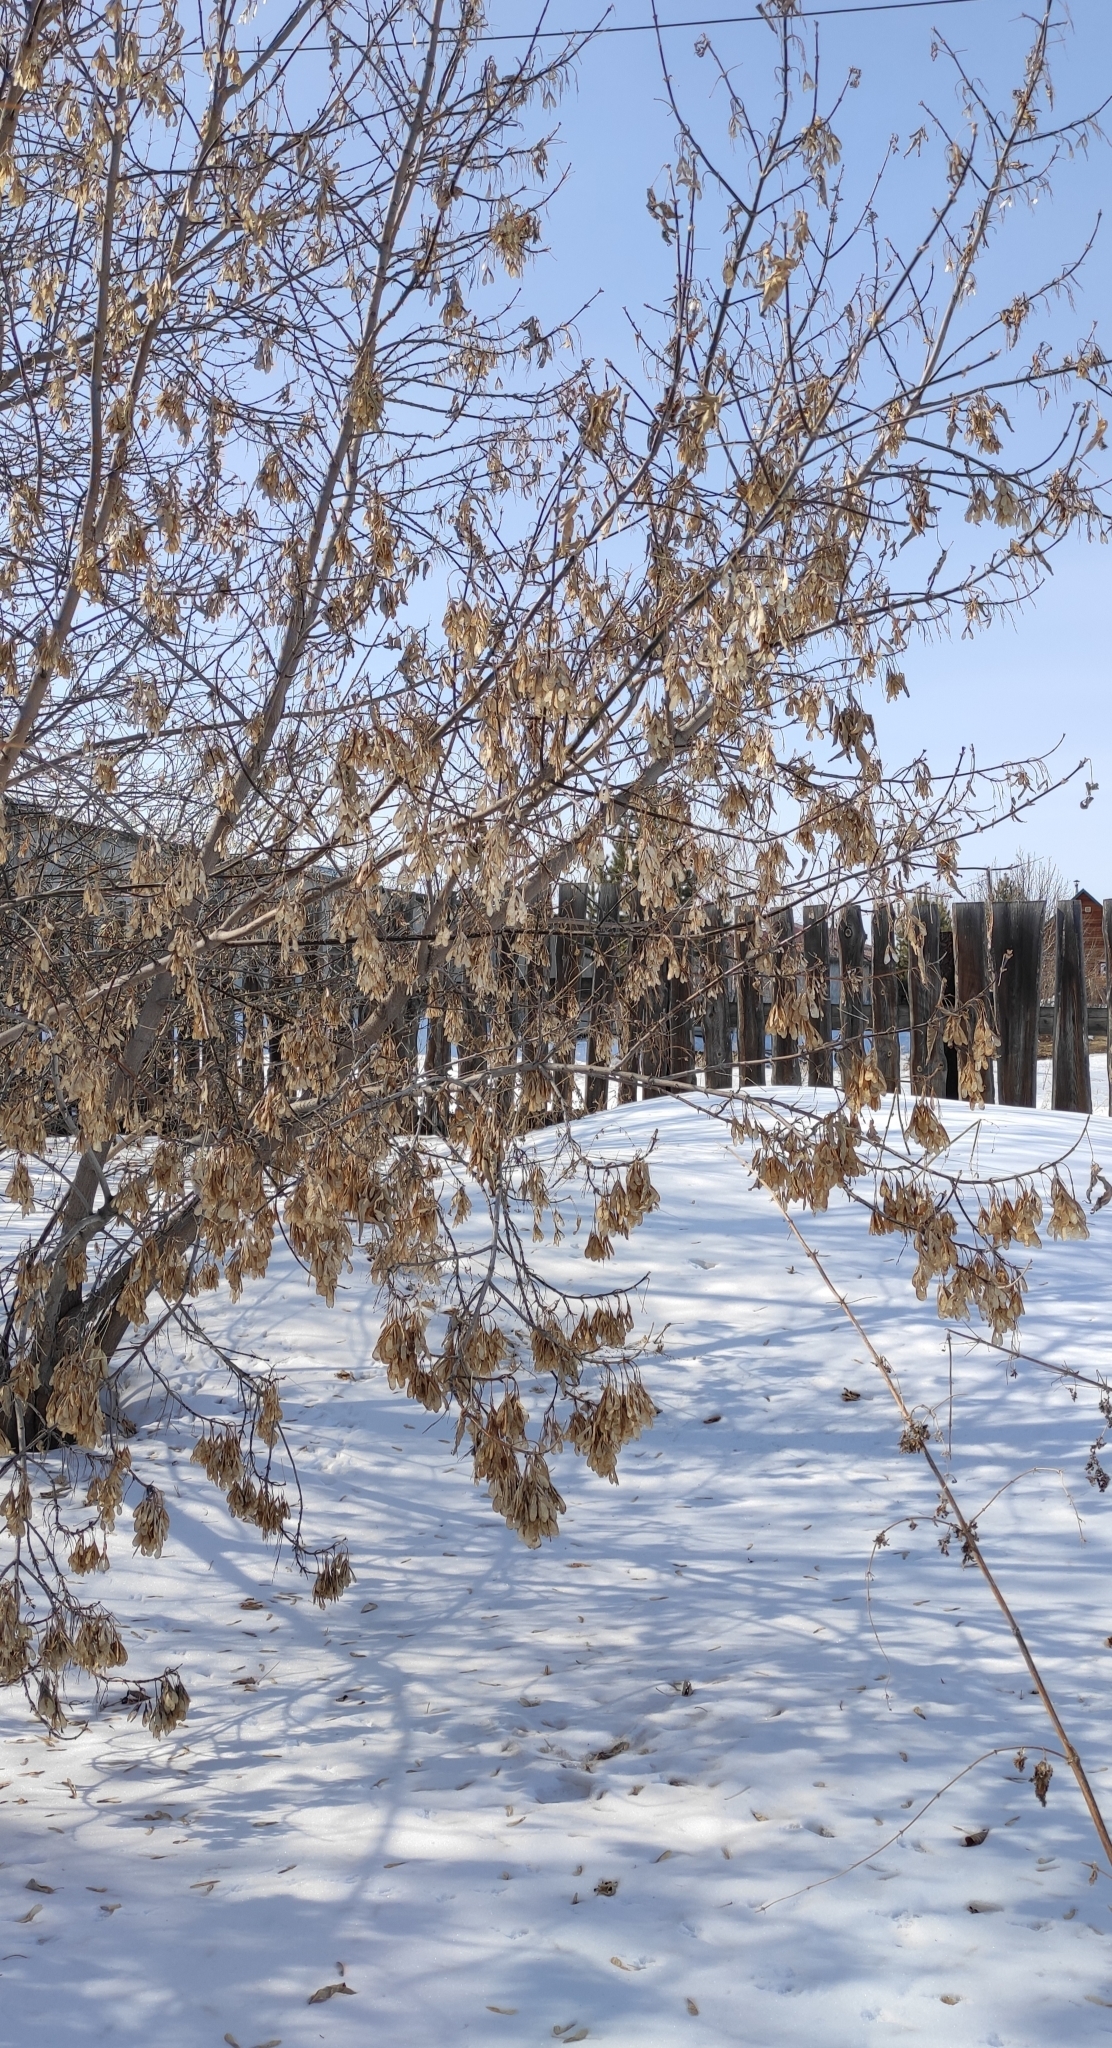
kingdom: Plantae
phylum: Tracheophyta
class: Magnoliopsida
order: Sapindales
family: Sapindaceae
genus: Acer
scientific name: Acer negundo
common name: Ashleaf maple
